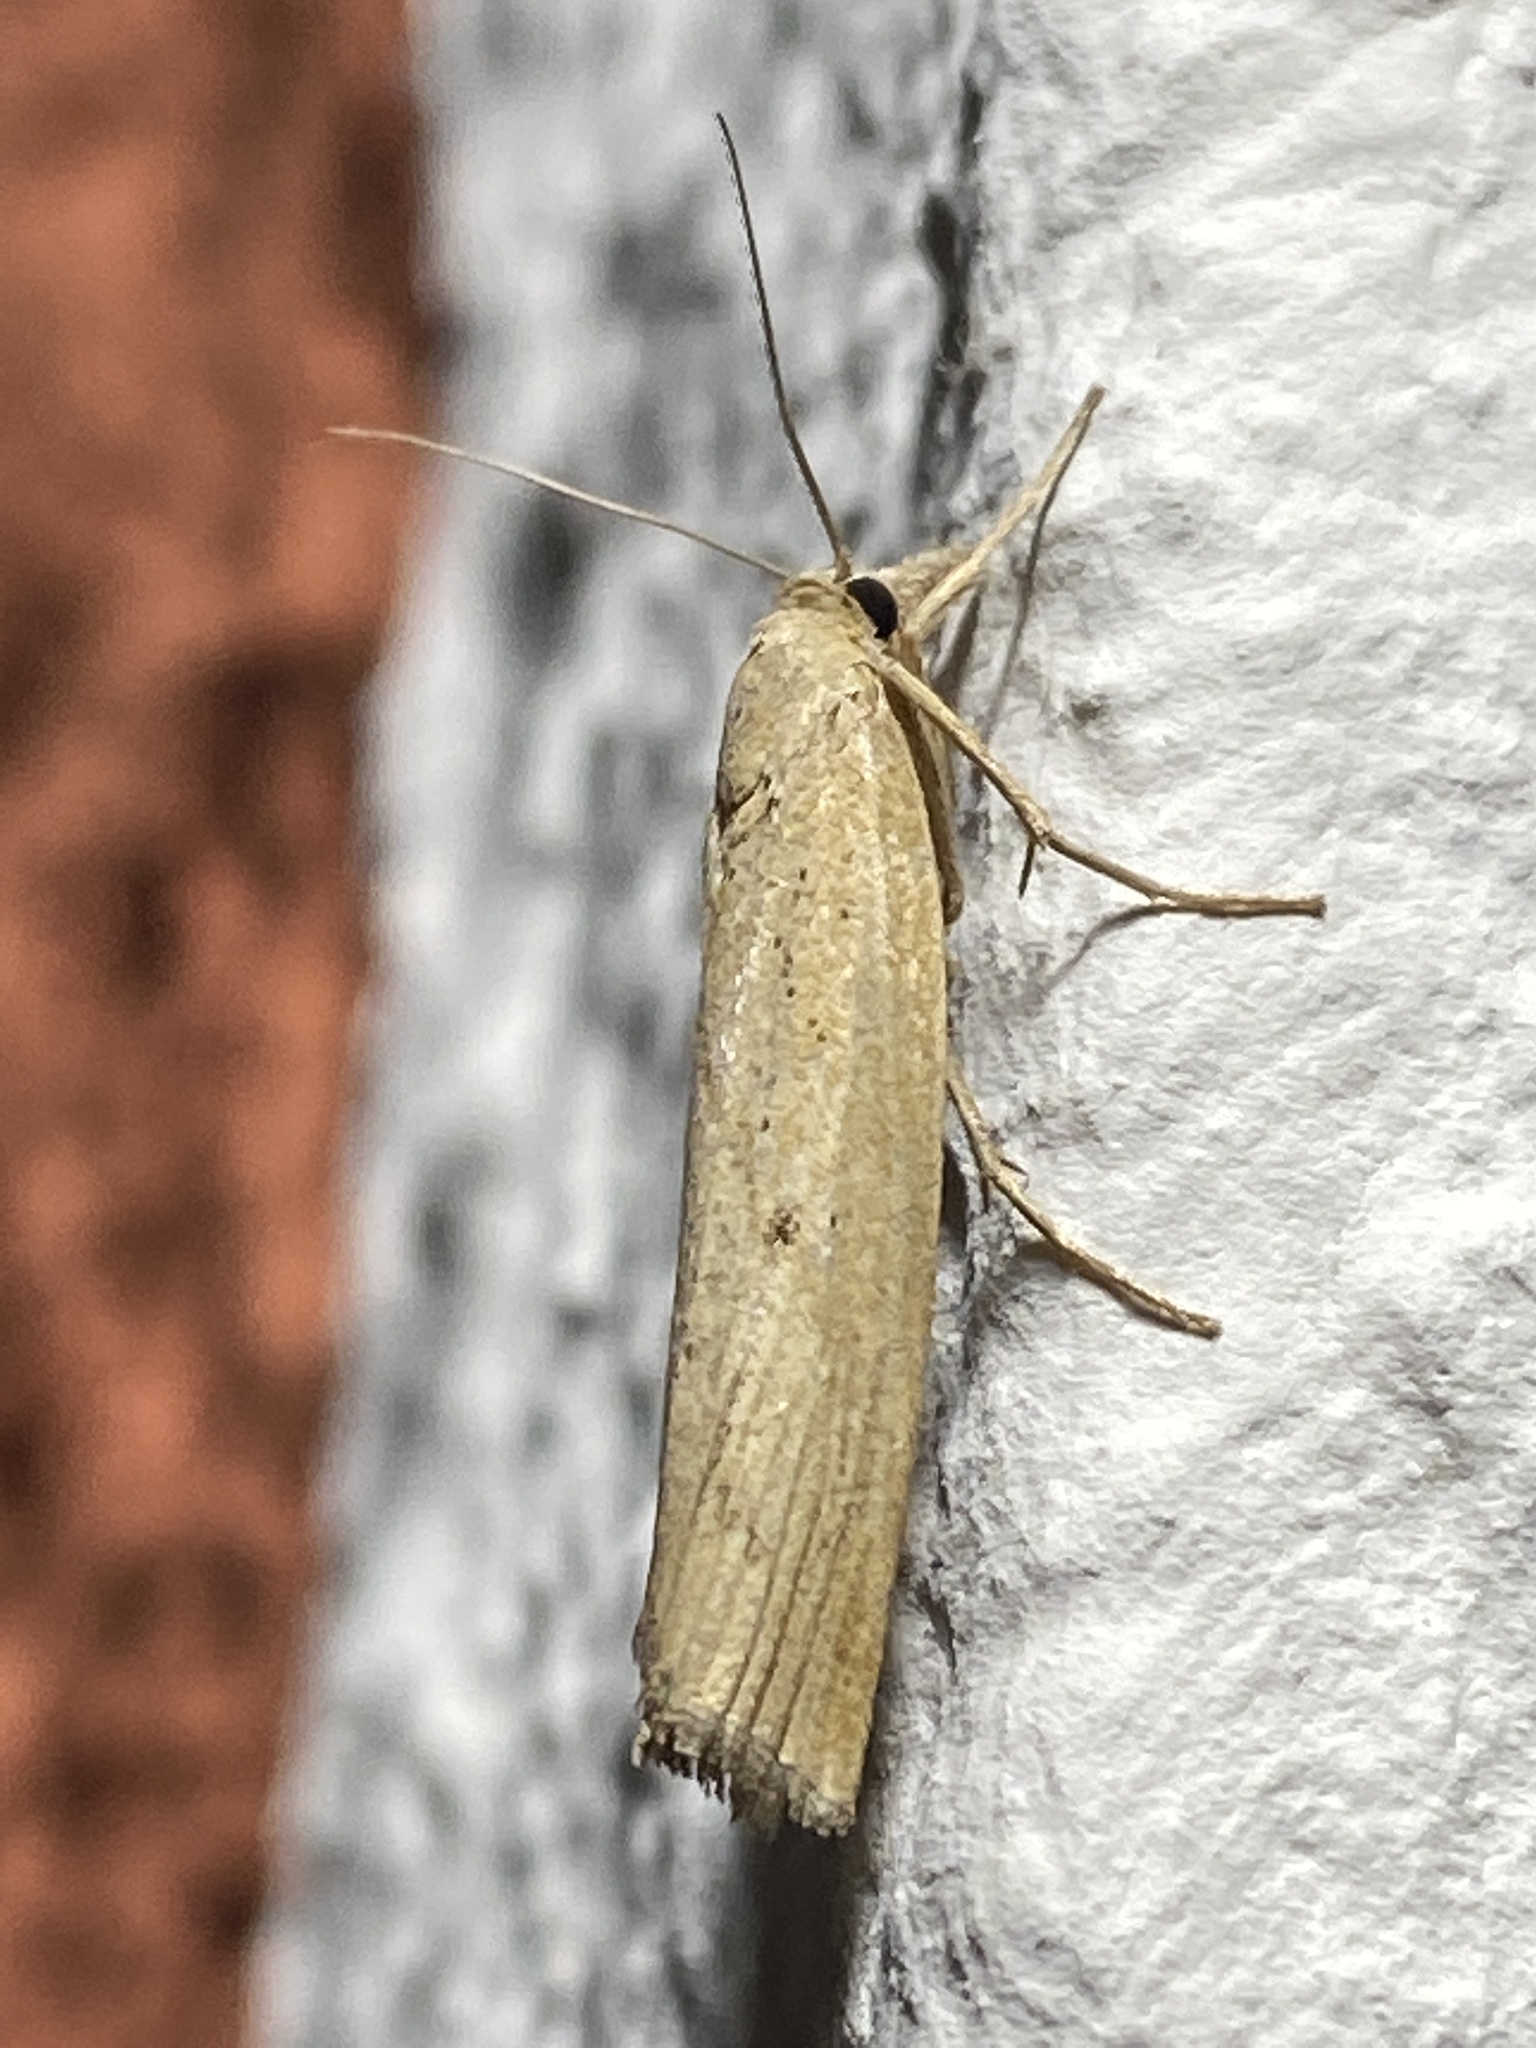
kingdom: Animalia
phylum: Arthropoda
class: Insecta
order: Lepidoptera
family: Crambidae
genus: Pediasia
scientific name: Pediasia contaminella
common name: Waste grass-veneer
